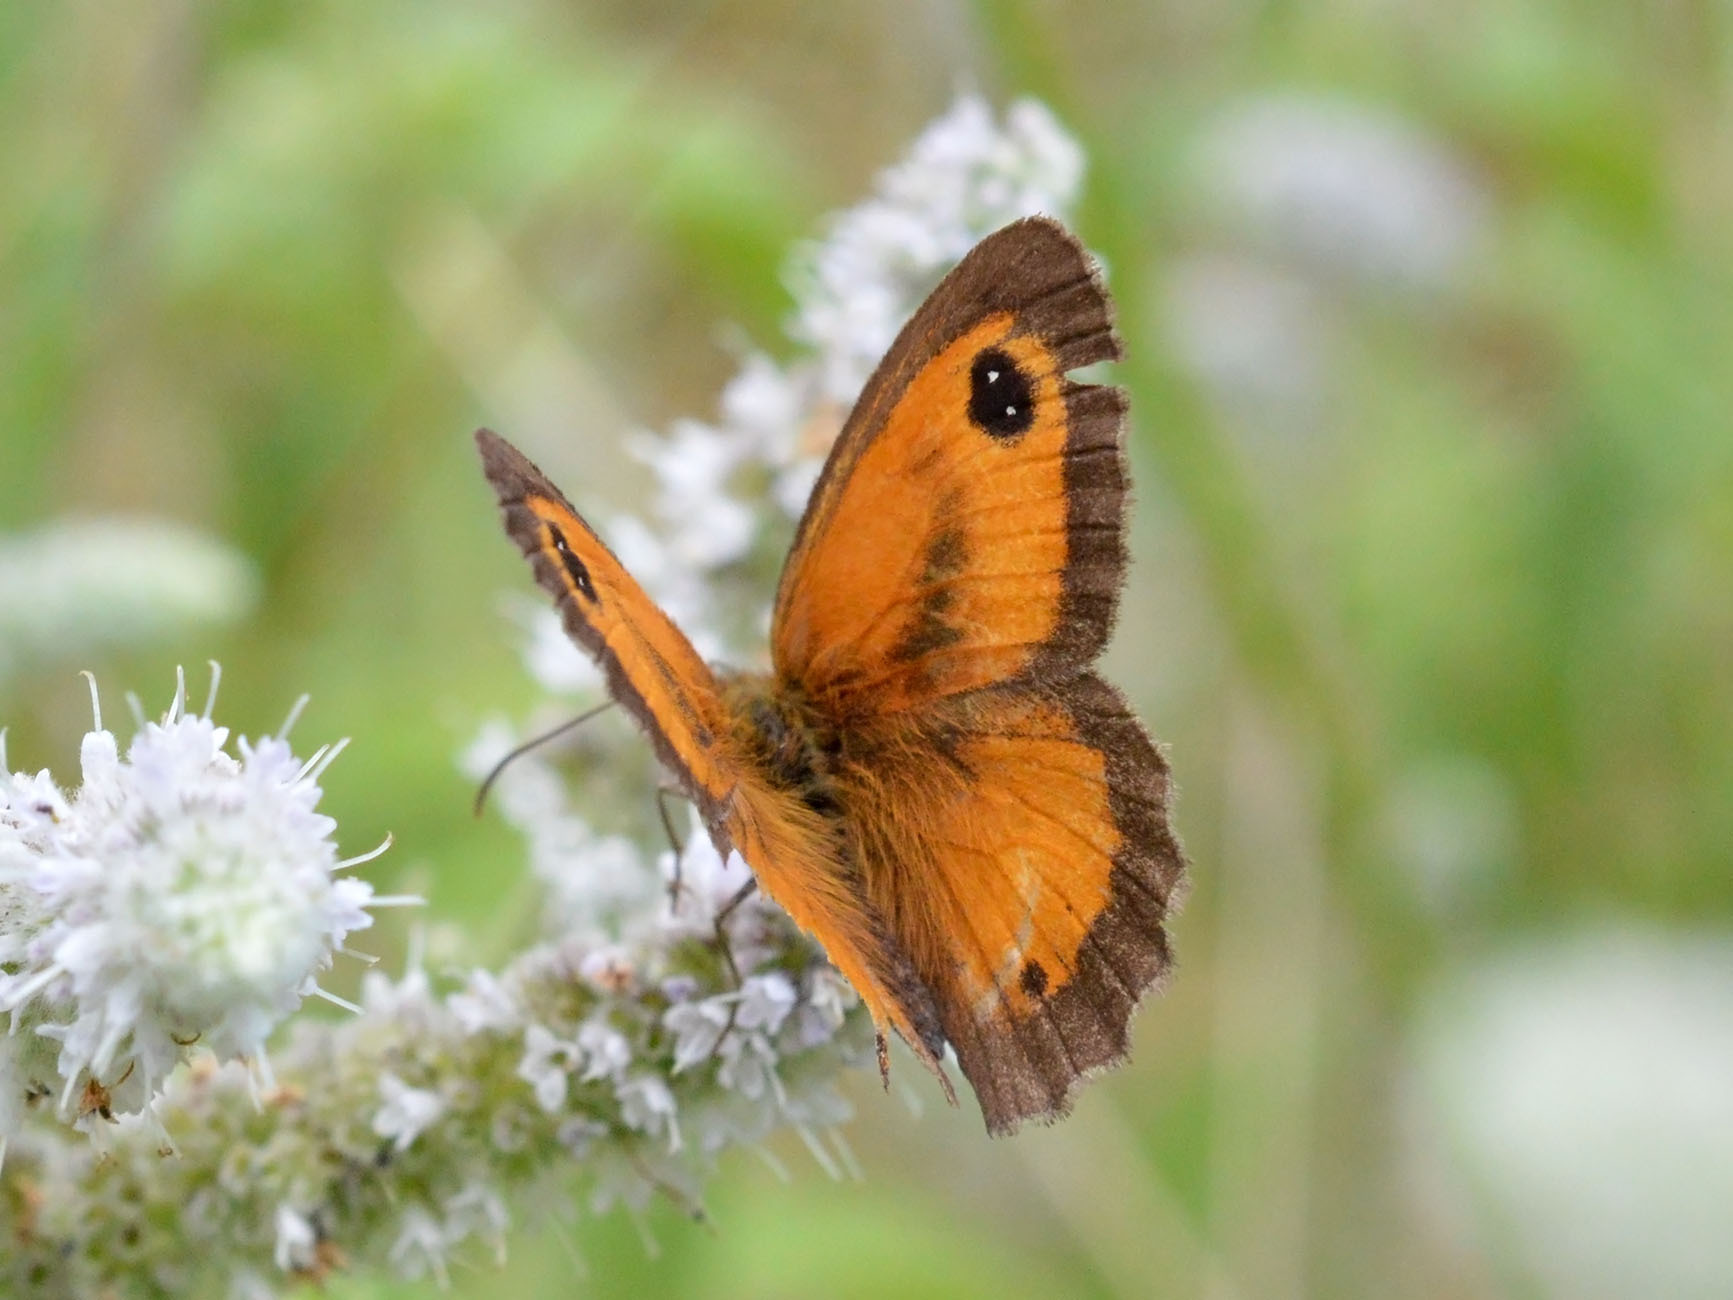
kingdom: Animalia
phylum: Arthropoda
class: Insecta
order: Lepidoptera
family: Nymphalidae
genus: Pyronia
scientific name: Pyronia tithonus
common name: Gatekeeper
